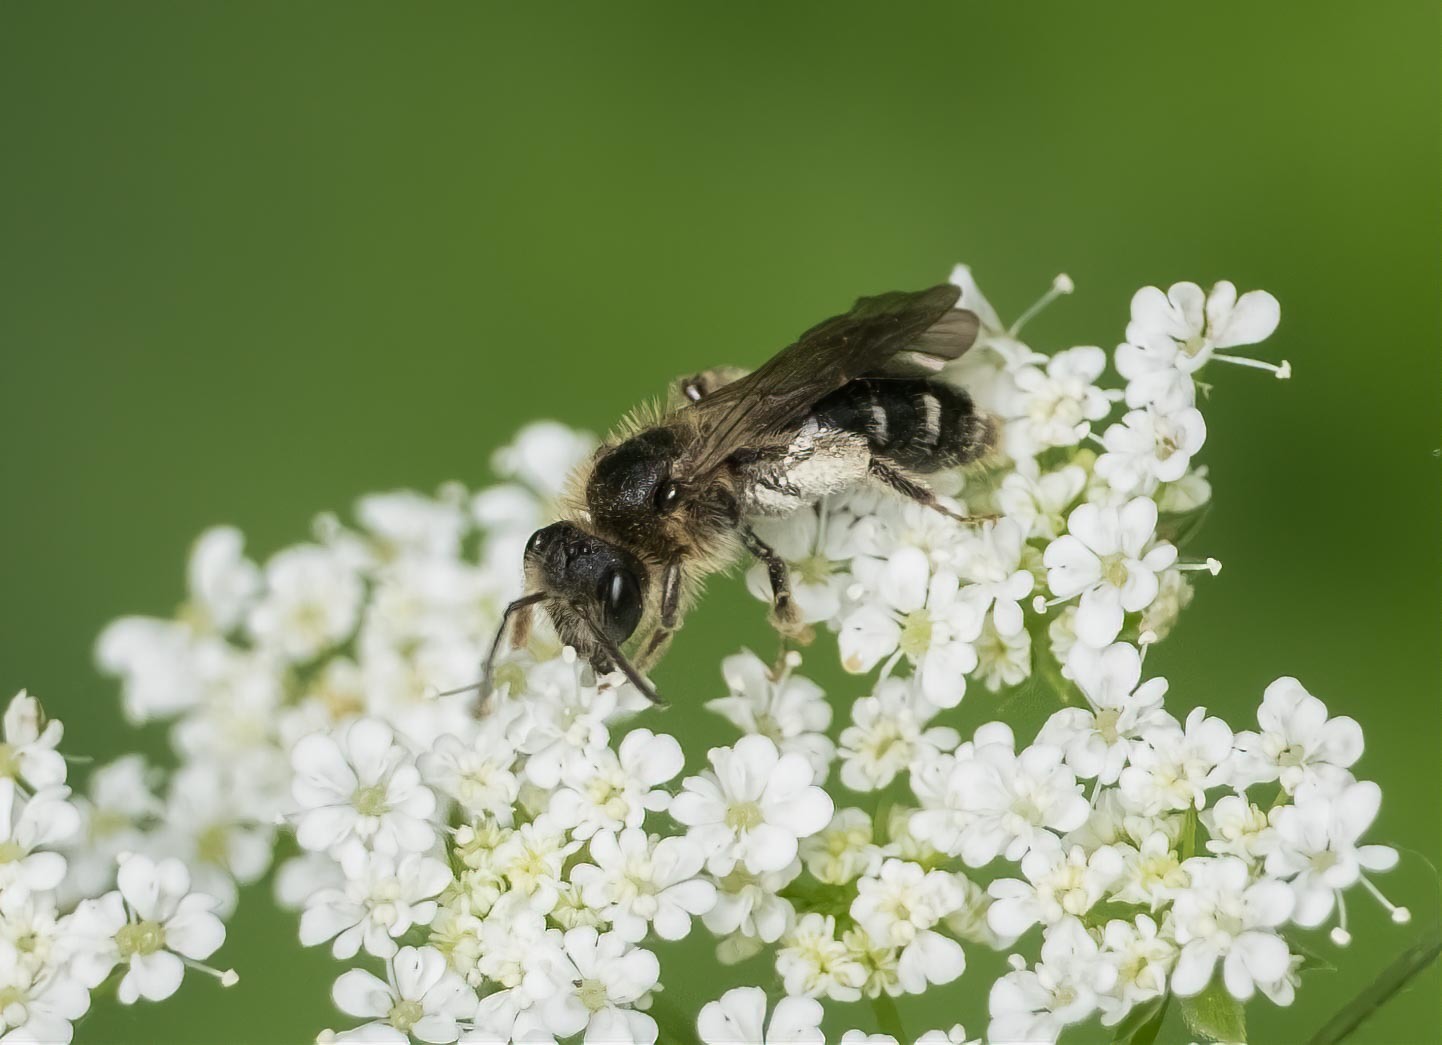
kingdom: Animalia
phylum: Arthropoda
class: Insecta
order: Hymenoptera
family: Andrenidae
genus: Andrena
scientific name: Andrena proxima
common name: Broad-faced mining bee
